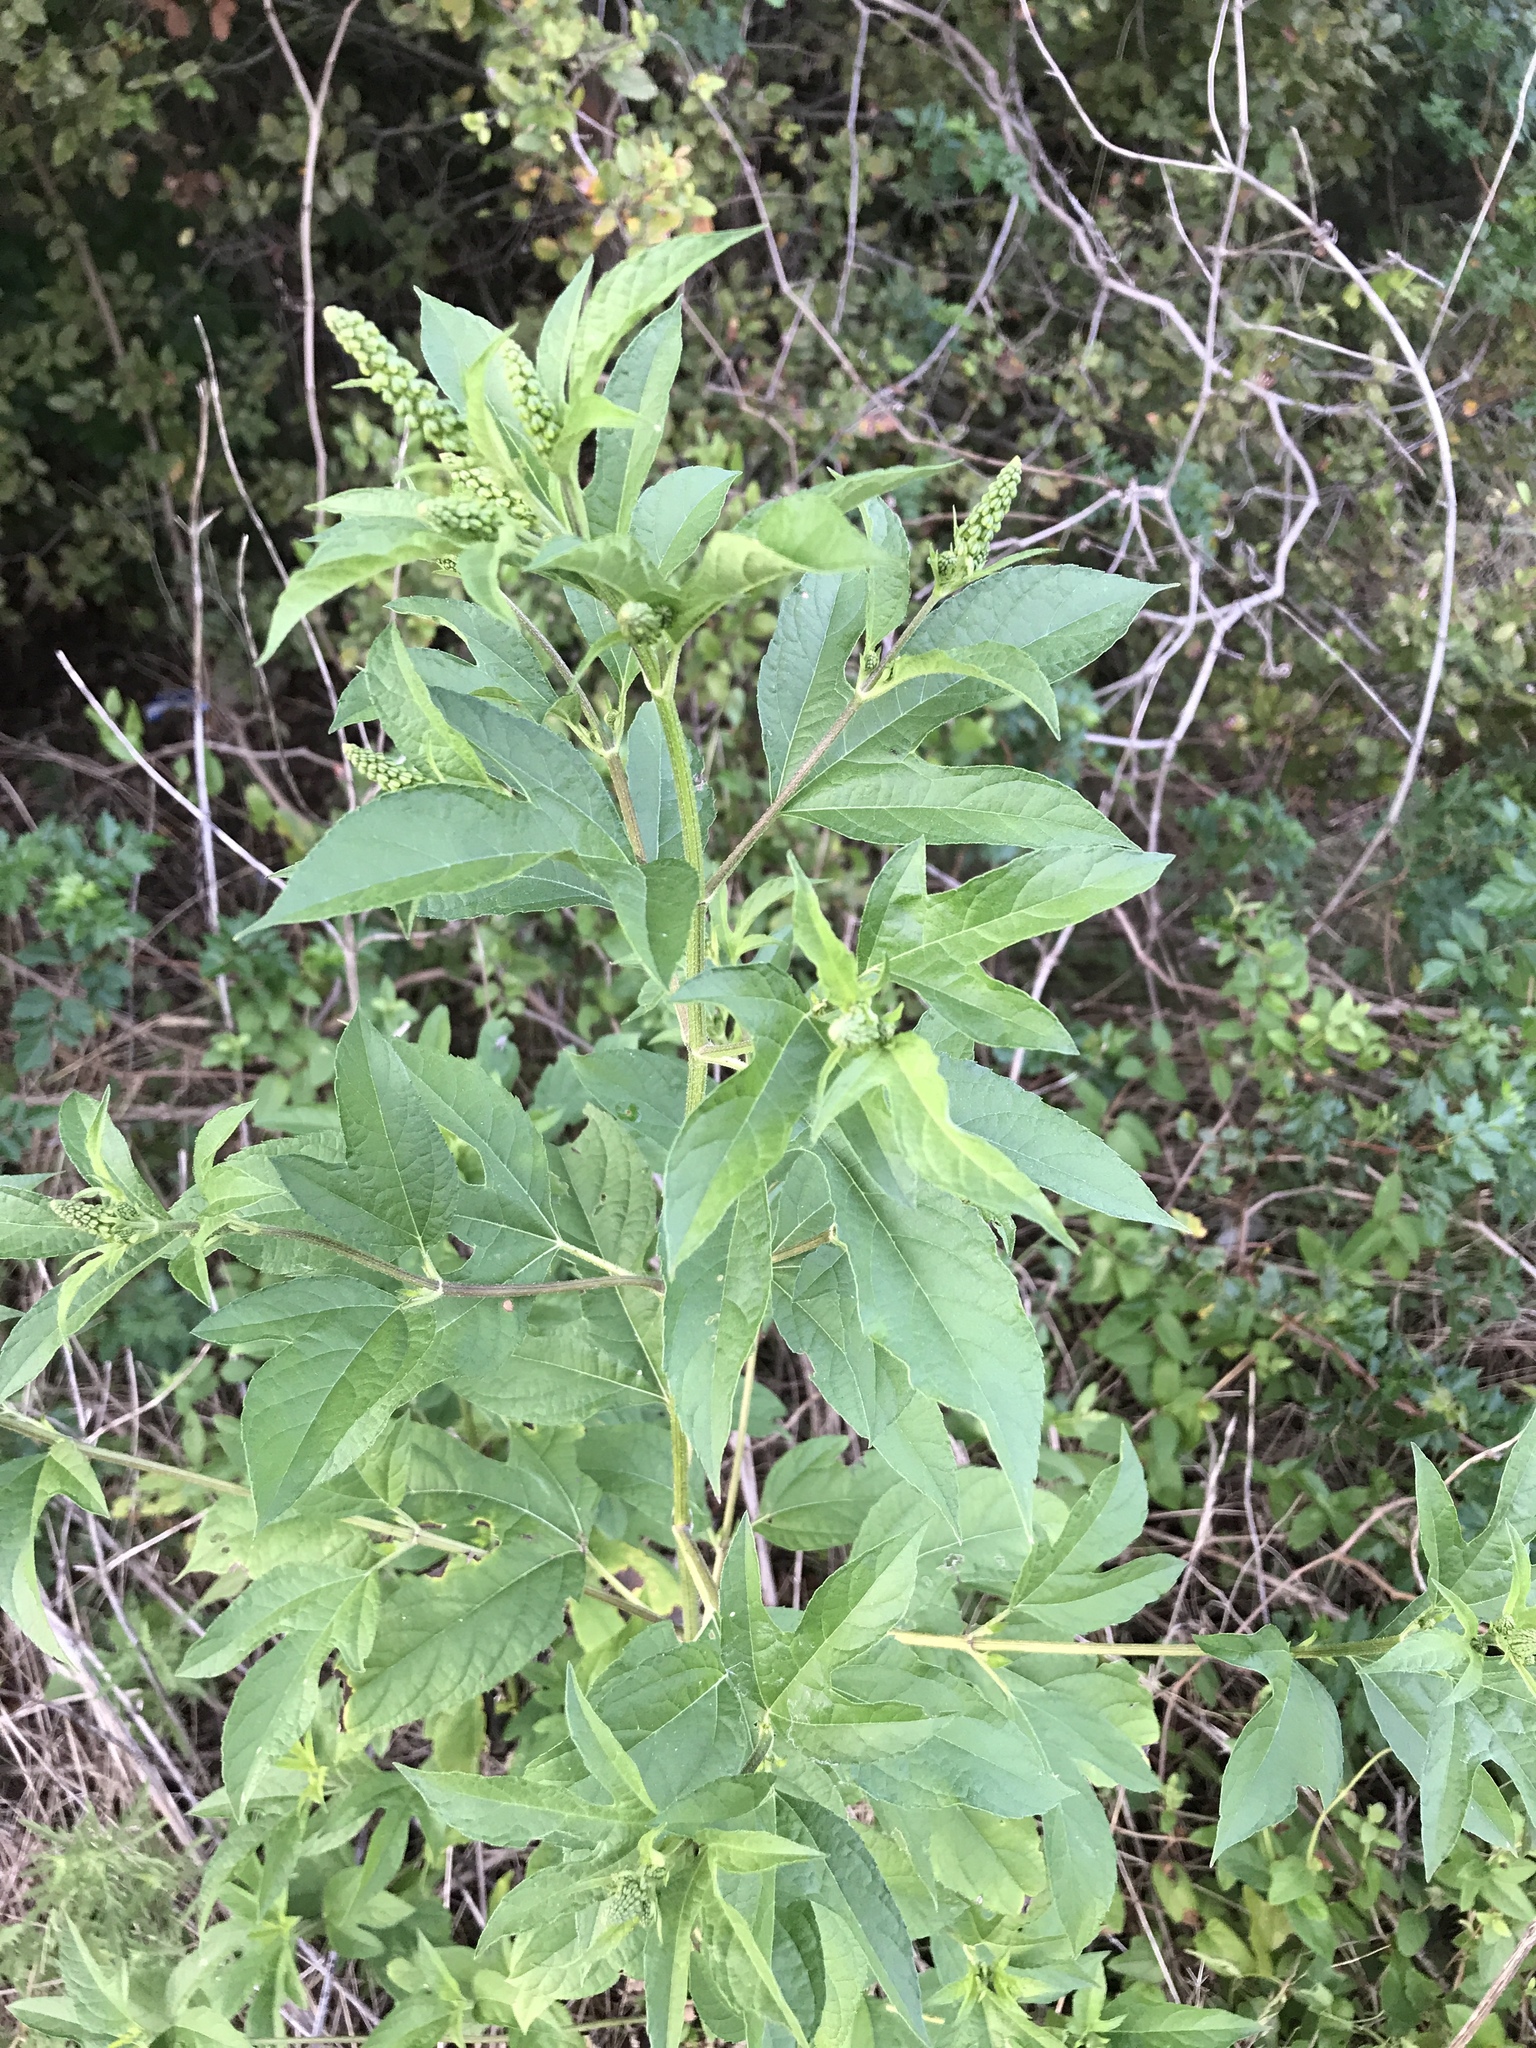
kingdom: Plantae
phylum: Tracheophyta
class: Magnoliopsida
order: Asterales
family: Asteraceae
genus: Ambrosia
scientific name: Ambrosia trifida
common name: Giant ragweed
